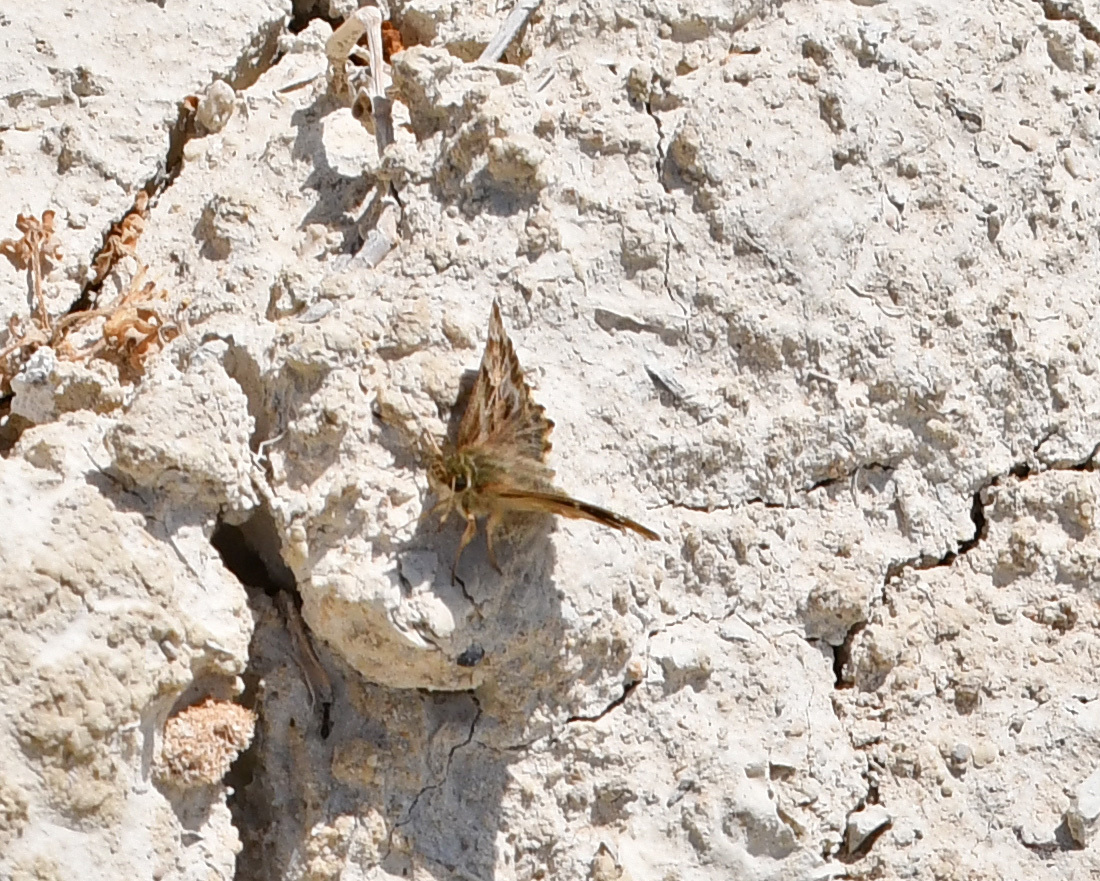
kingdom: Animalia
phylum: Arthropoda
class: Insecta
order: Lepidoptera
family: Hesperiidae
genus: Carcharodus
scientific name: Carcharodus alceae
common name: Mallow skipper
